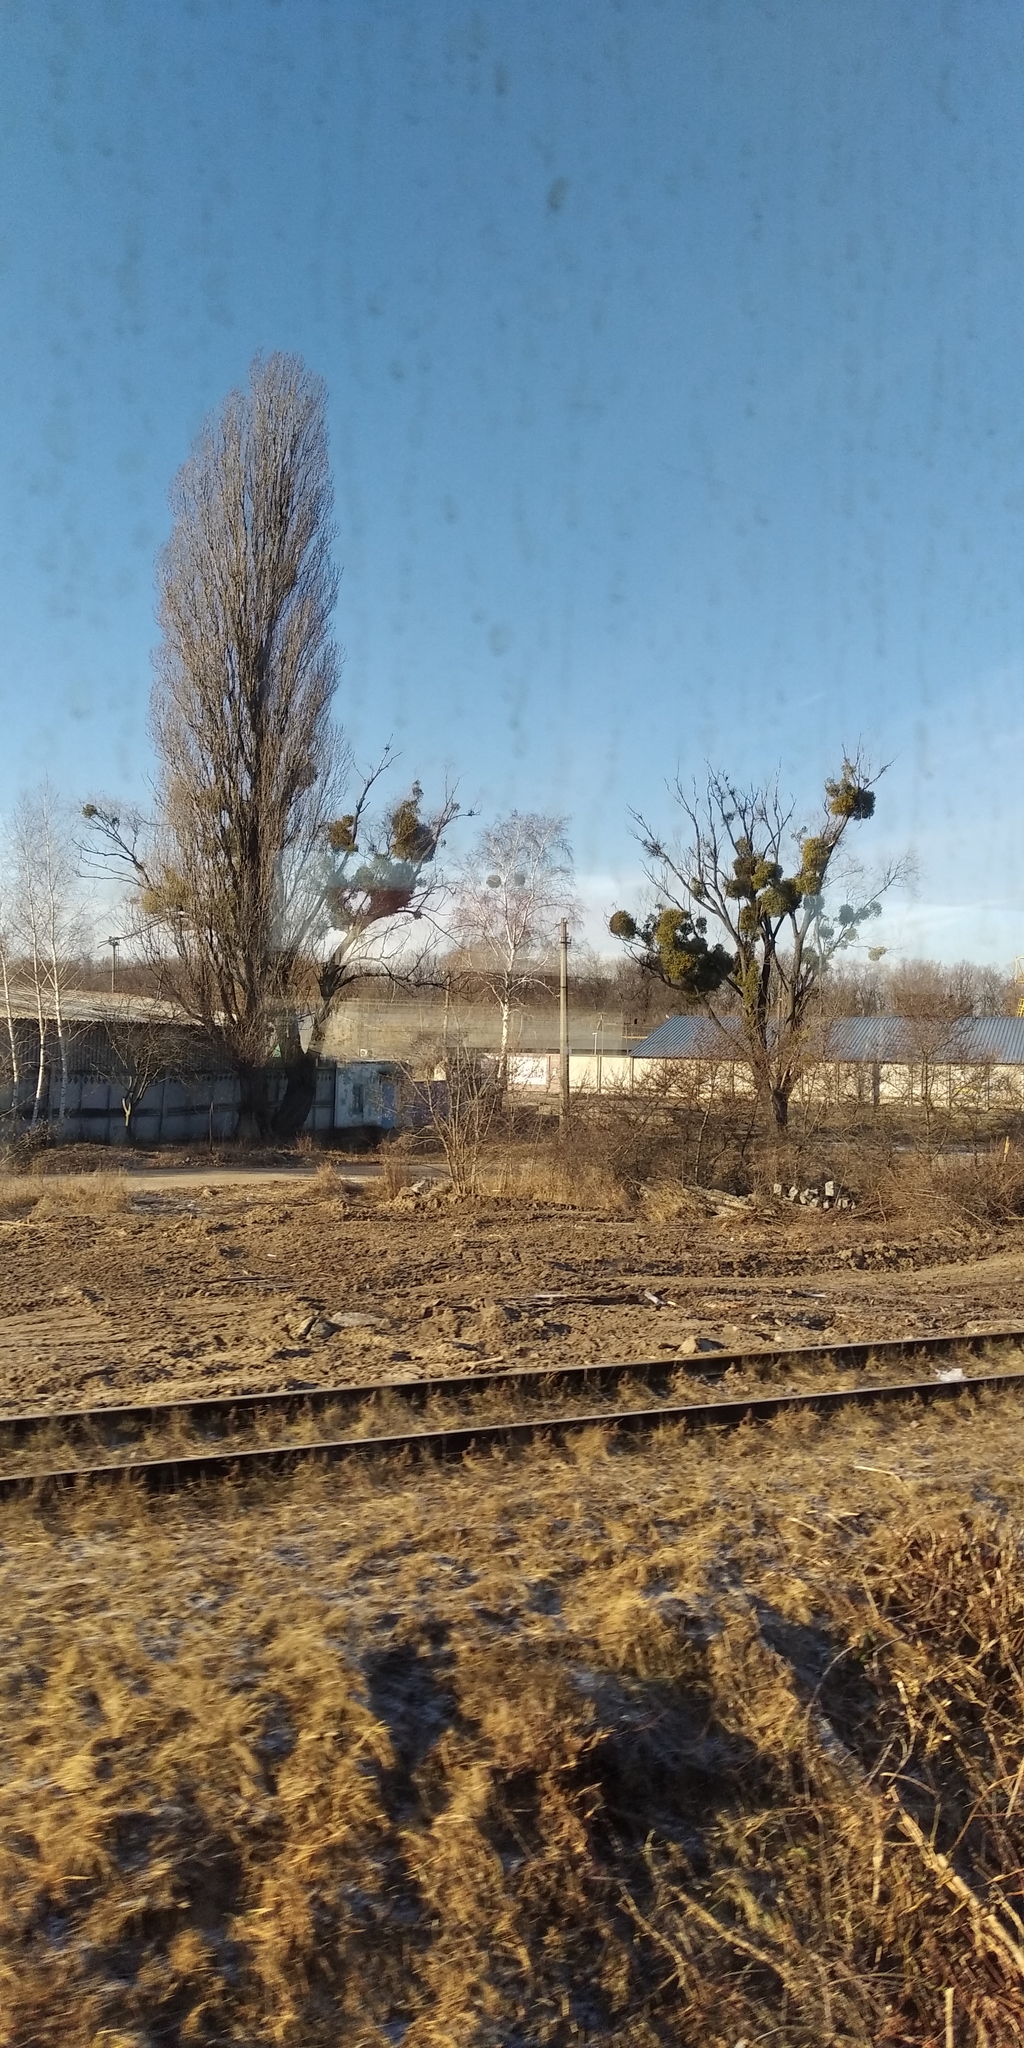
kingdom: Plantae
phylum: Tracheophyta
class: Magnoliopsida
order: Santalales
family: Viscaceae
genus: Viscum
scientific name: Viscum album
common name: Mistletoe
